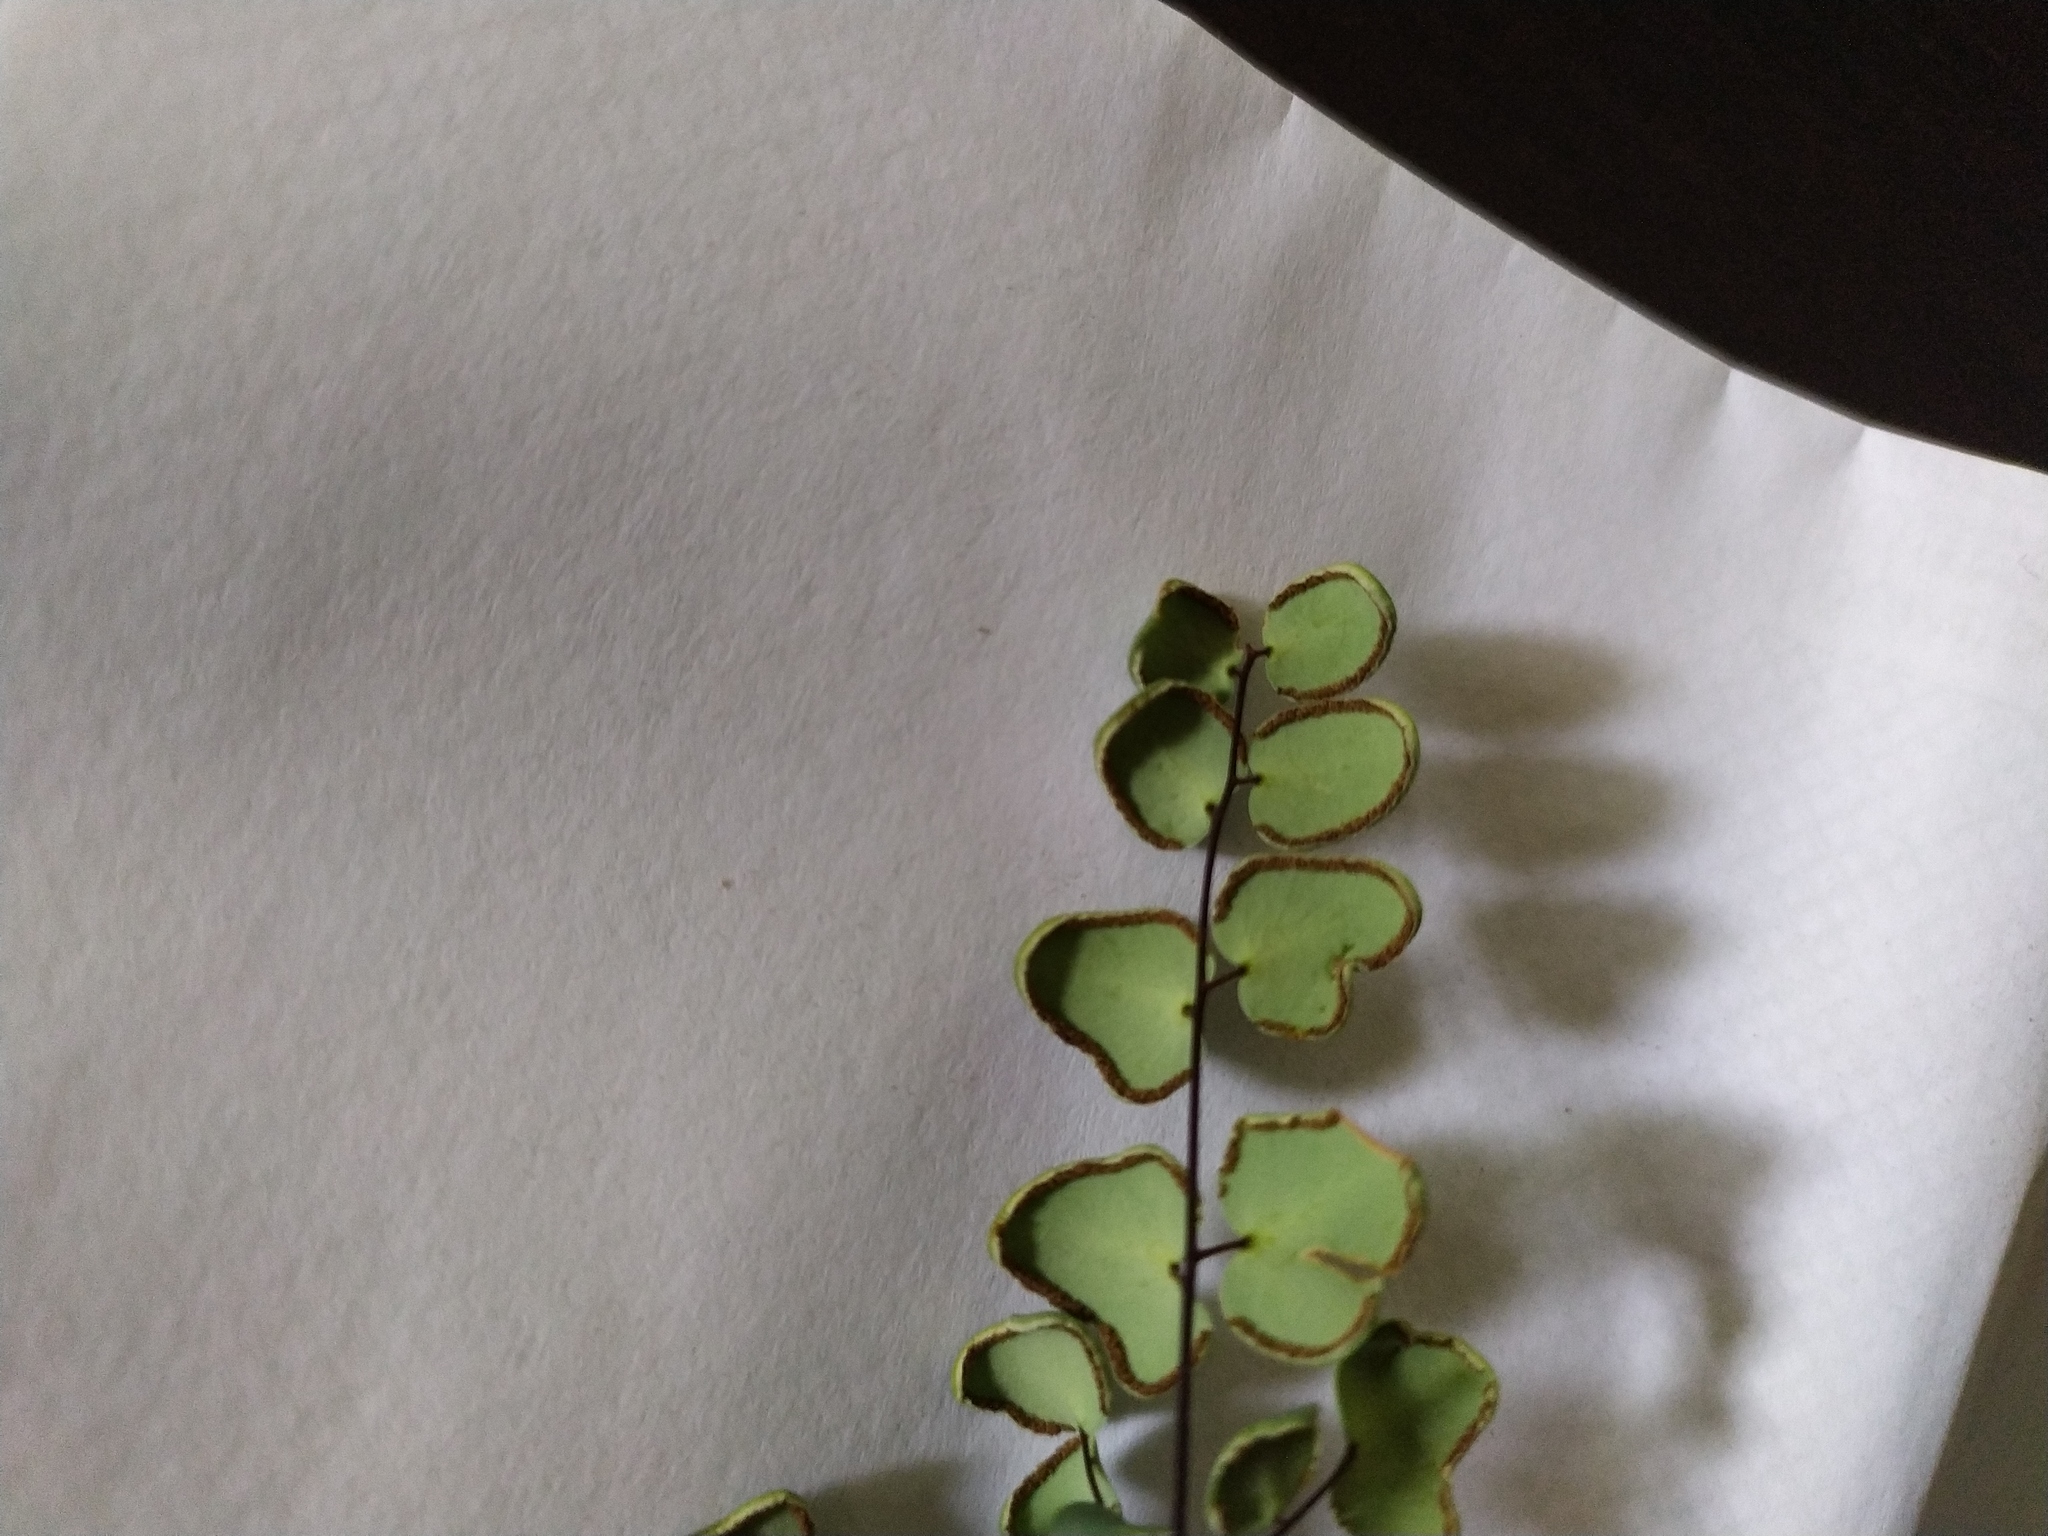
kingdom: Plantae
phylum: Tracheophyta
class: Polypodiopsida
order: Polypodiales
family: Pteridaceae
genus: Pellaea
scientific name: Pellaea calomelanos
